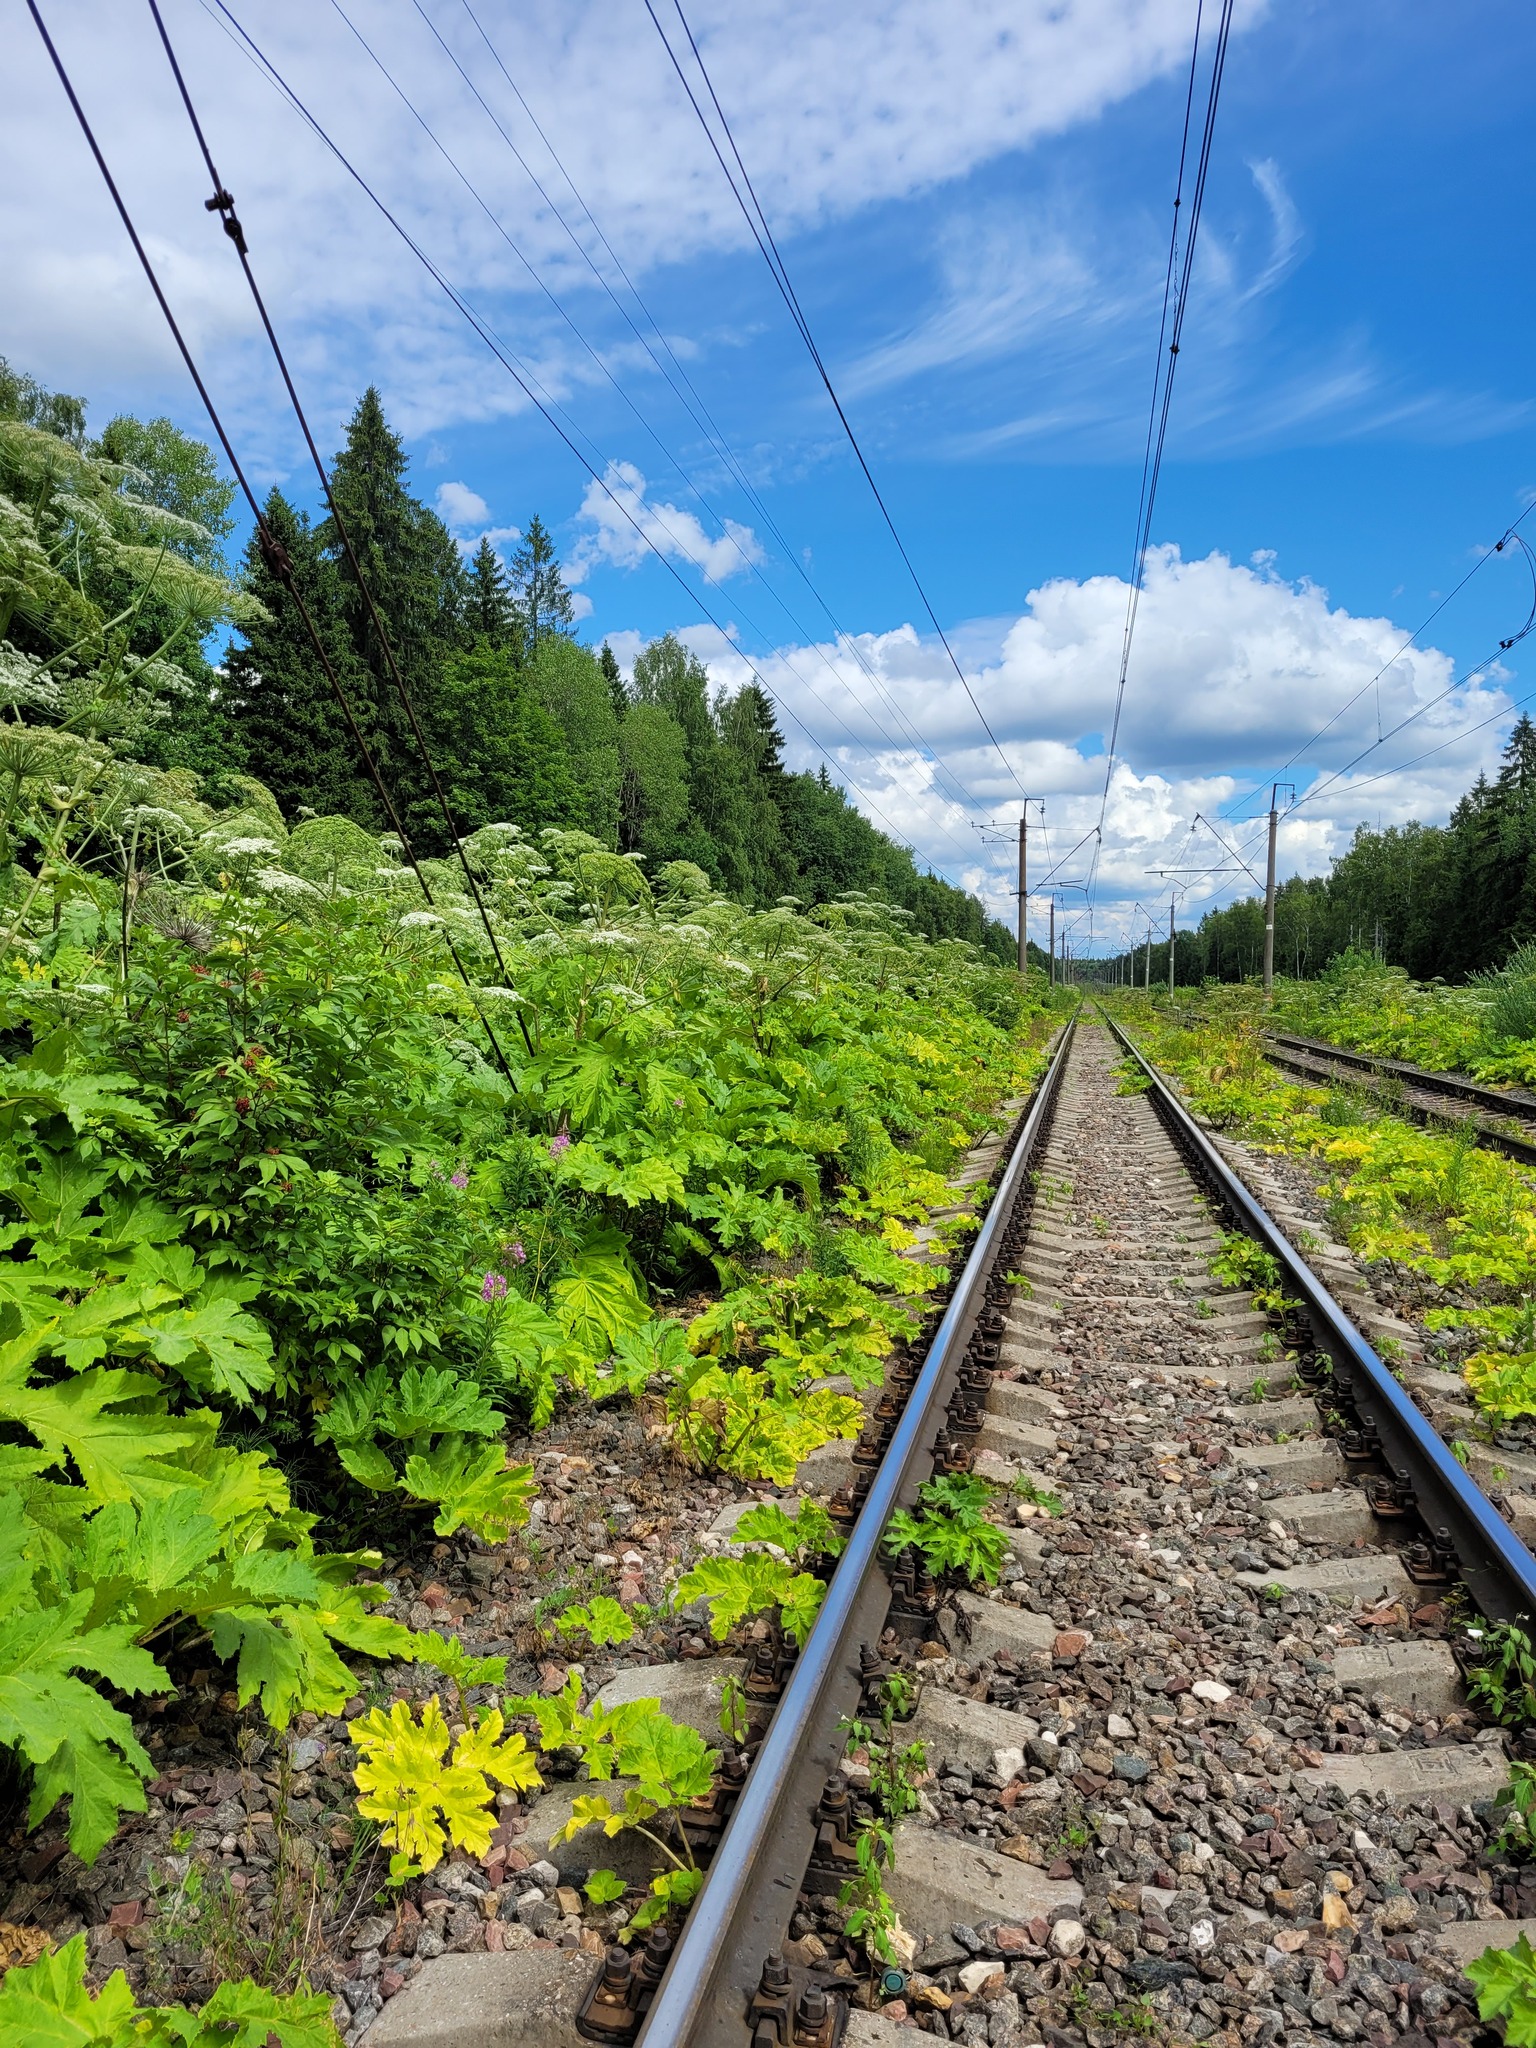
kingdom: Plantae
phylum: Tracheophyta
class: Magnoliopsida
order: Apiales
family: Apiaceae
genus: Heracleum
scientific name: Heracleum sosnowskyi
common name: Sosnowsky's hogweed
